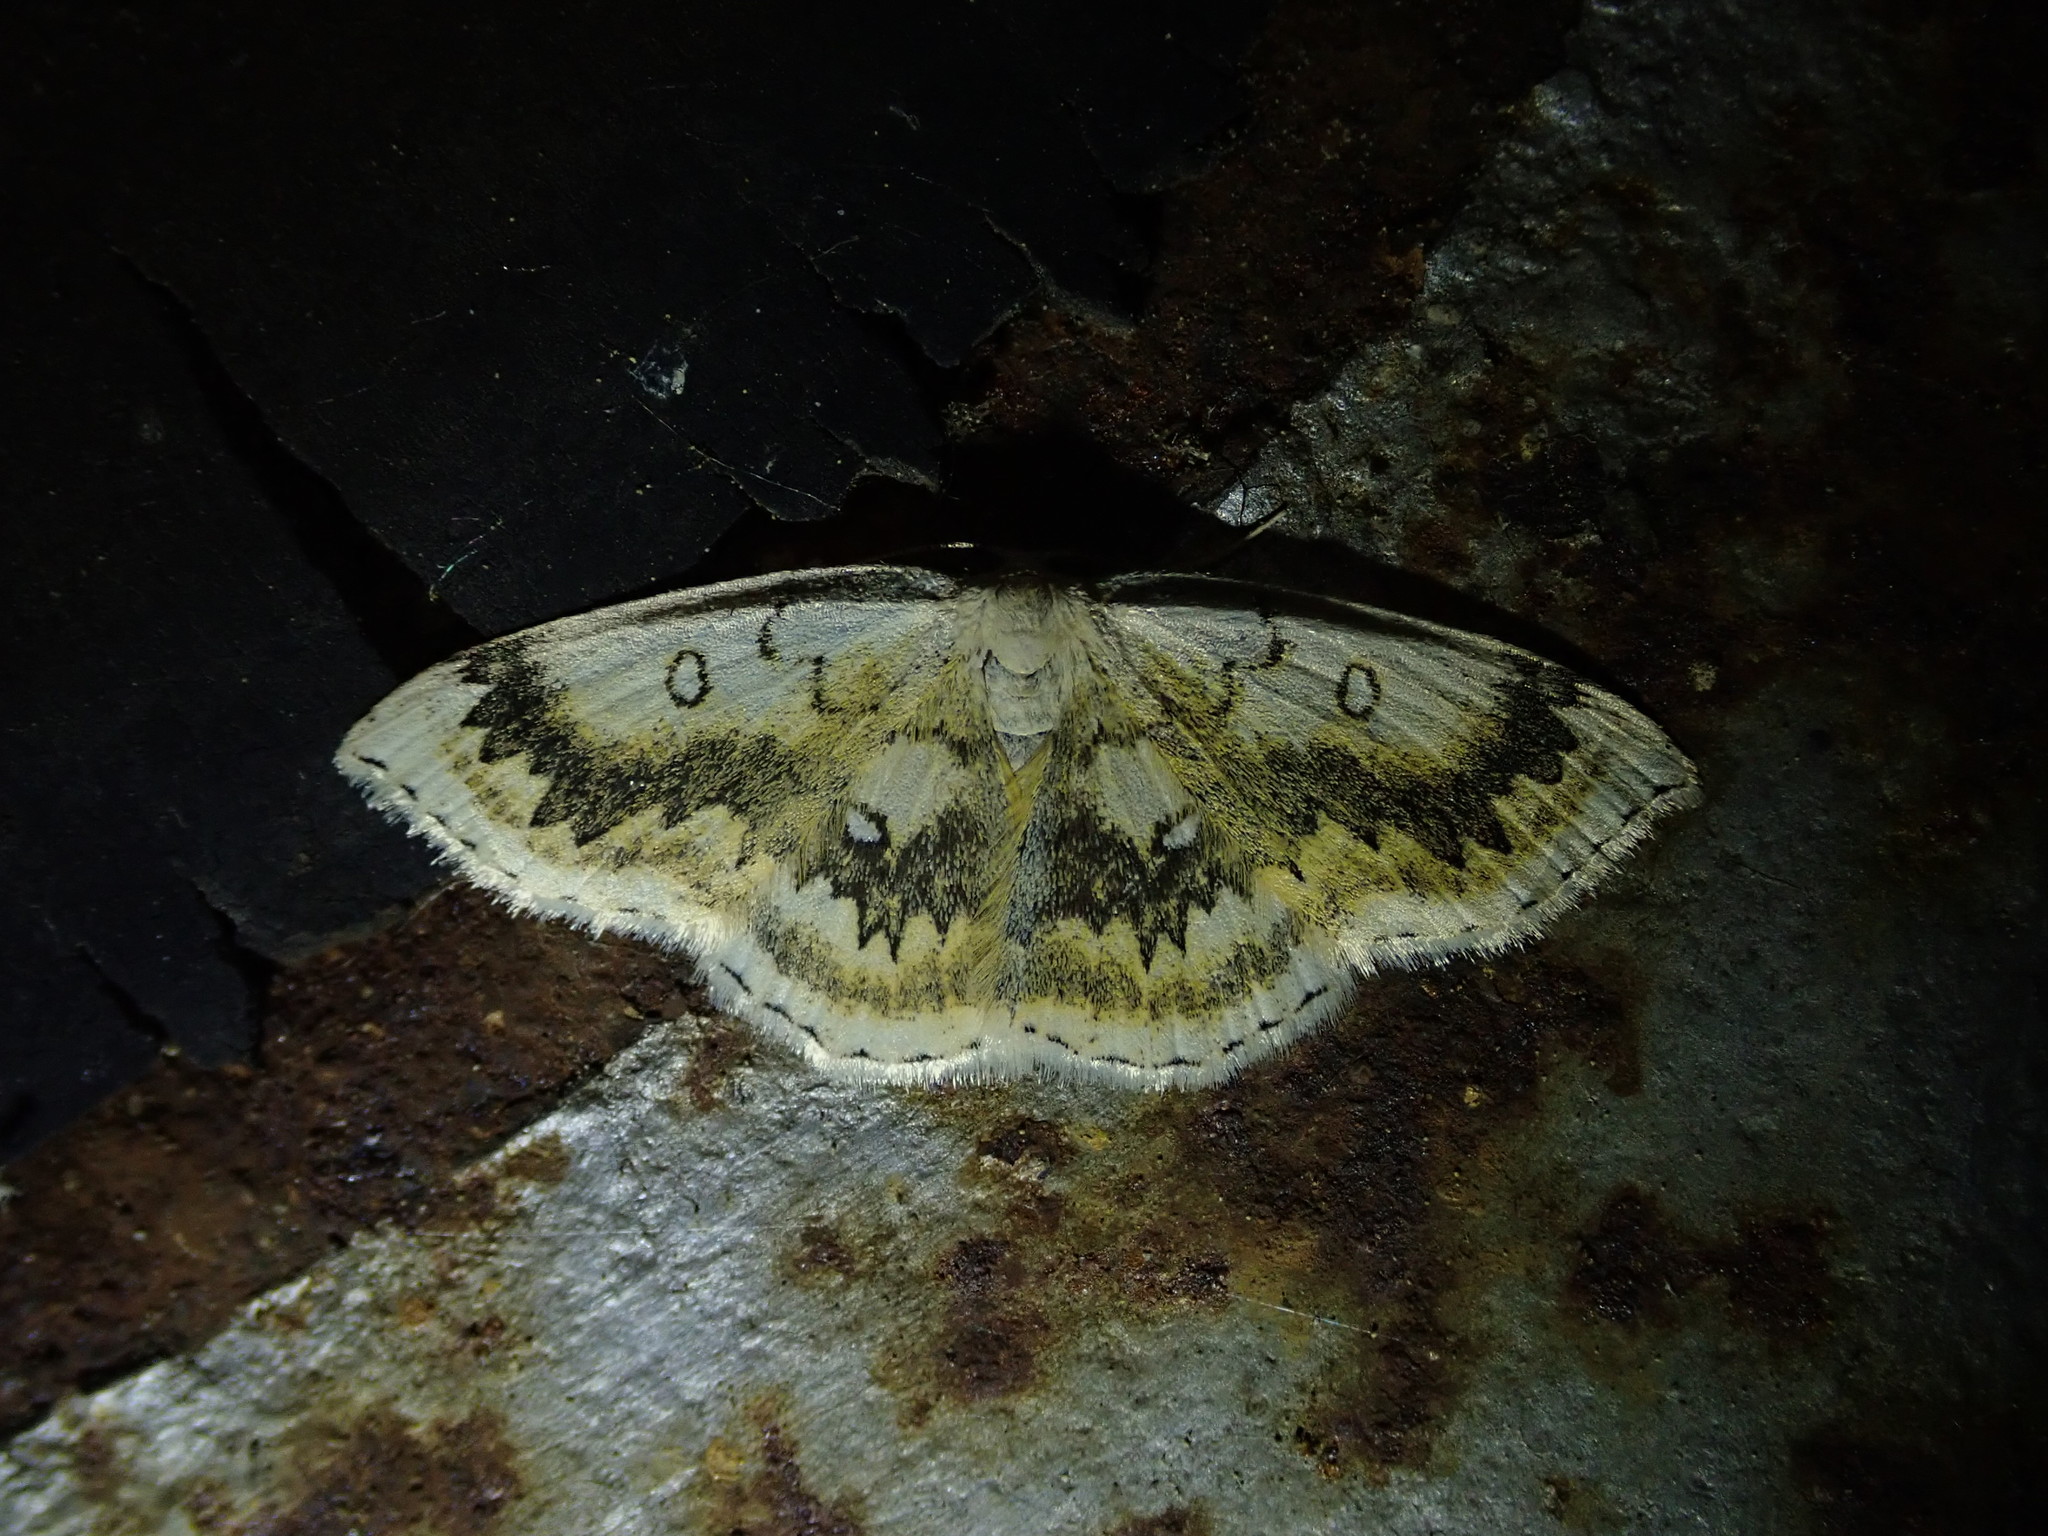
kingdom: Animalia
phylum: Arthropoda
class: Insecta
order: Lepidoptera
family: Geometridae
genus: Cyclophora
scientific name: Cyclophora annularia
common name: Mocha
